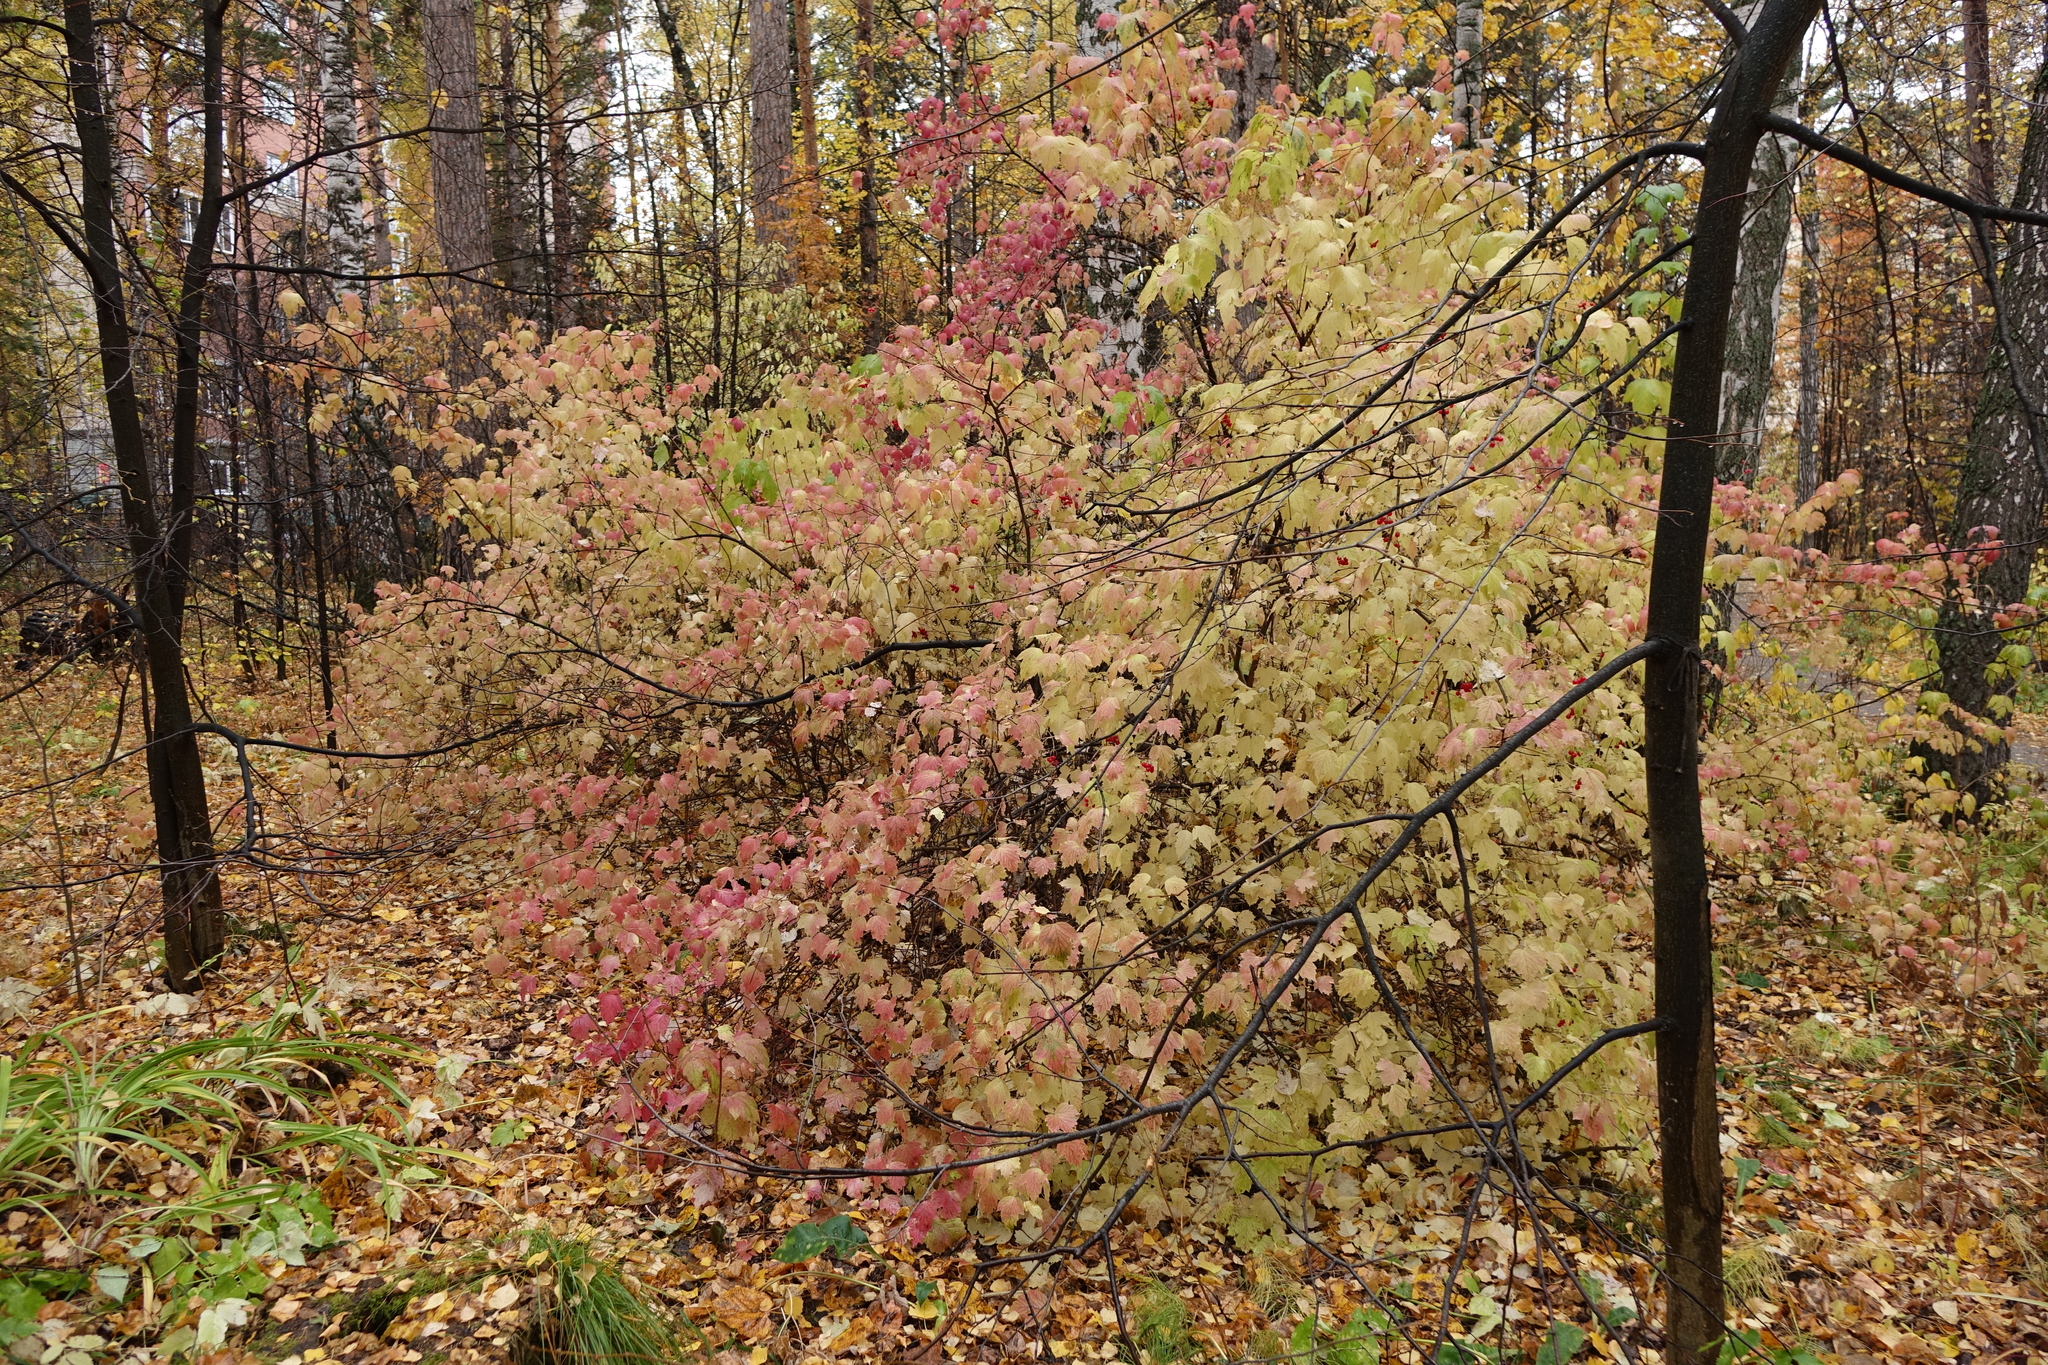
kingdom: Plantae
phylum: Tracheophyta
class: Magnoliopsida
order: Dipsacales
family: Viburnaceae
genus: Viburnum
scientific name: Viburnum opulus
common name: Guelder-rose
